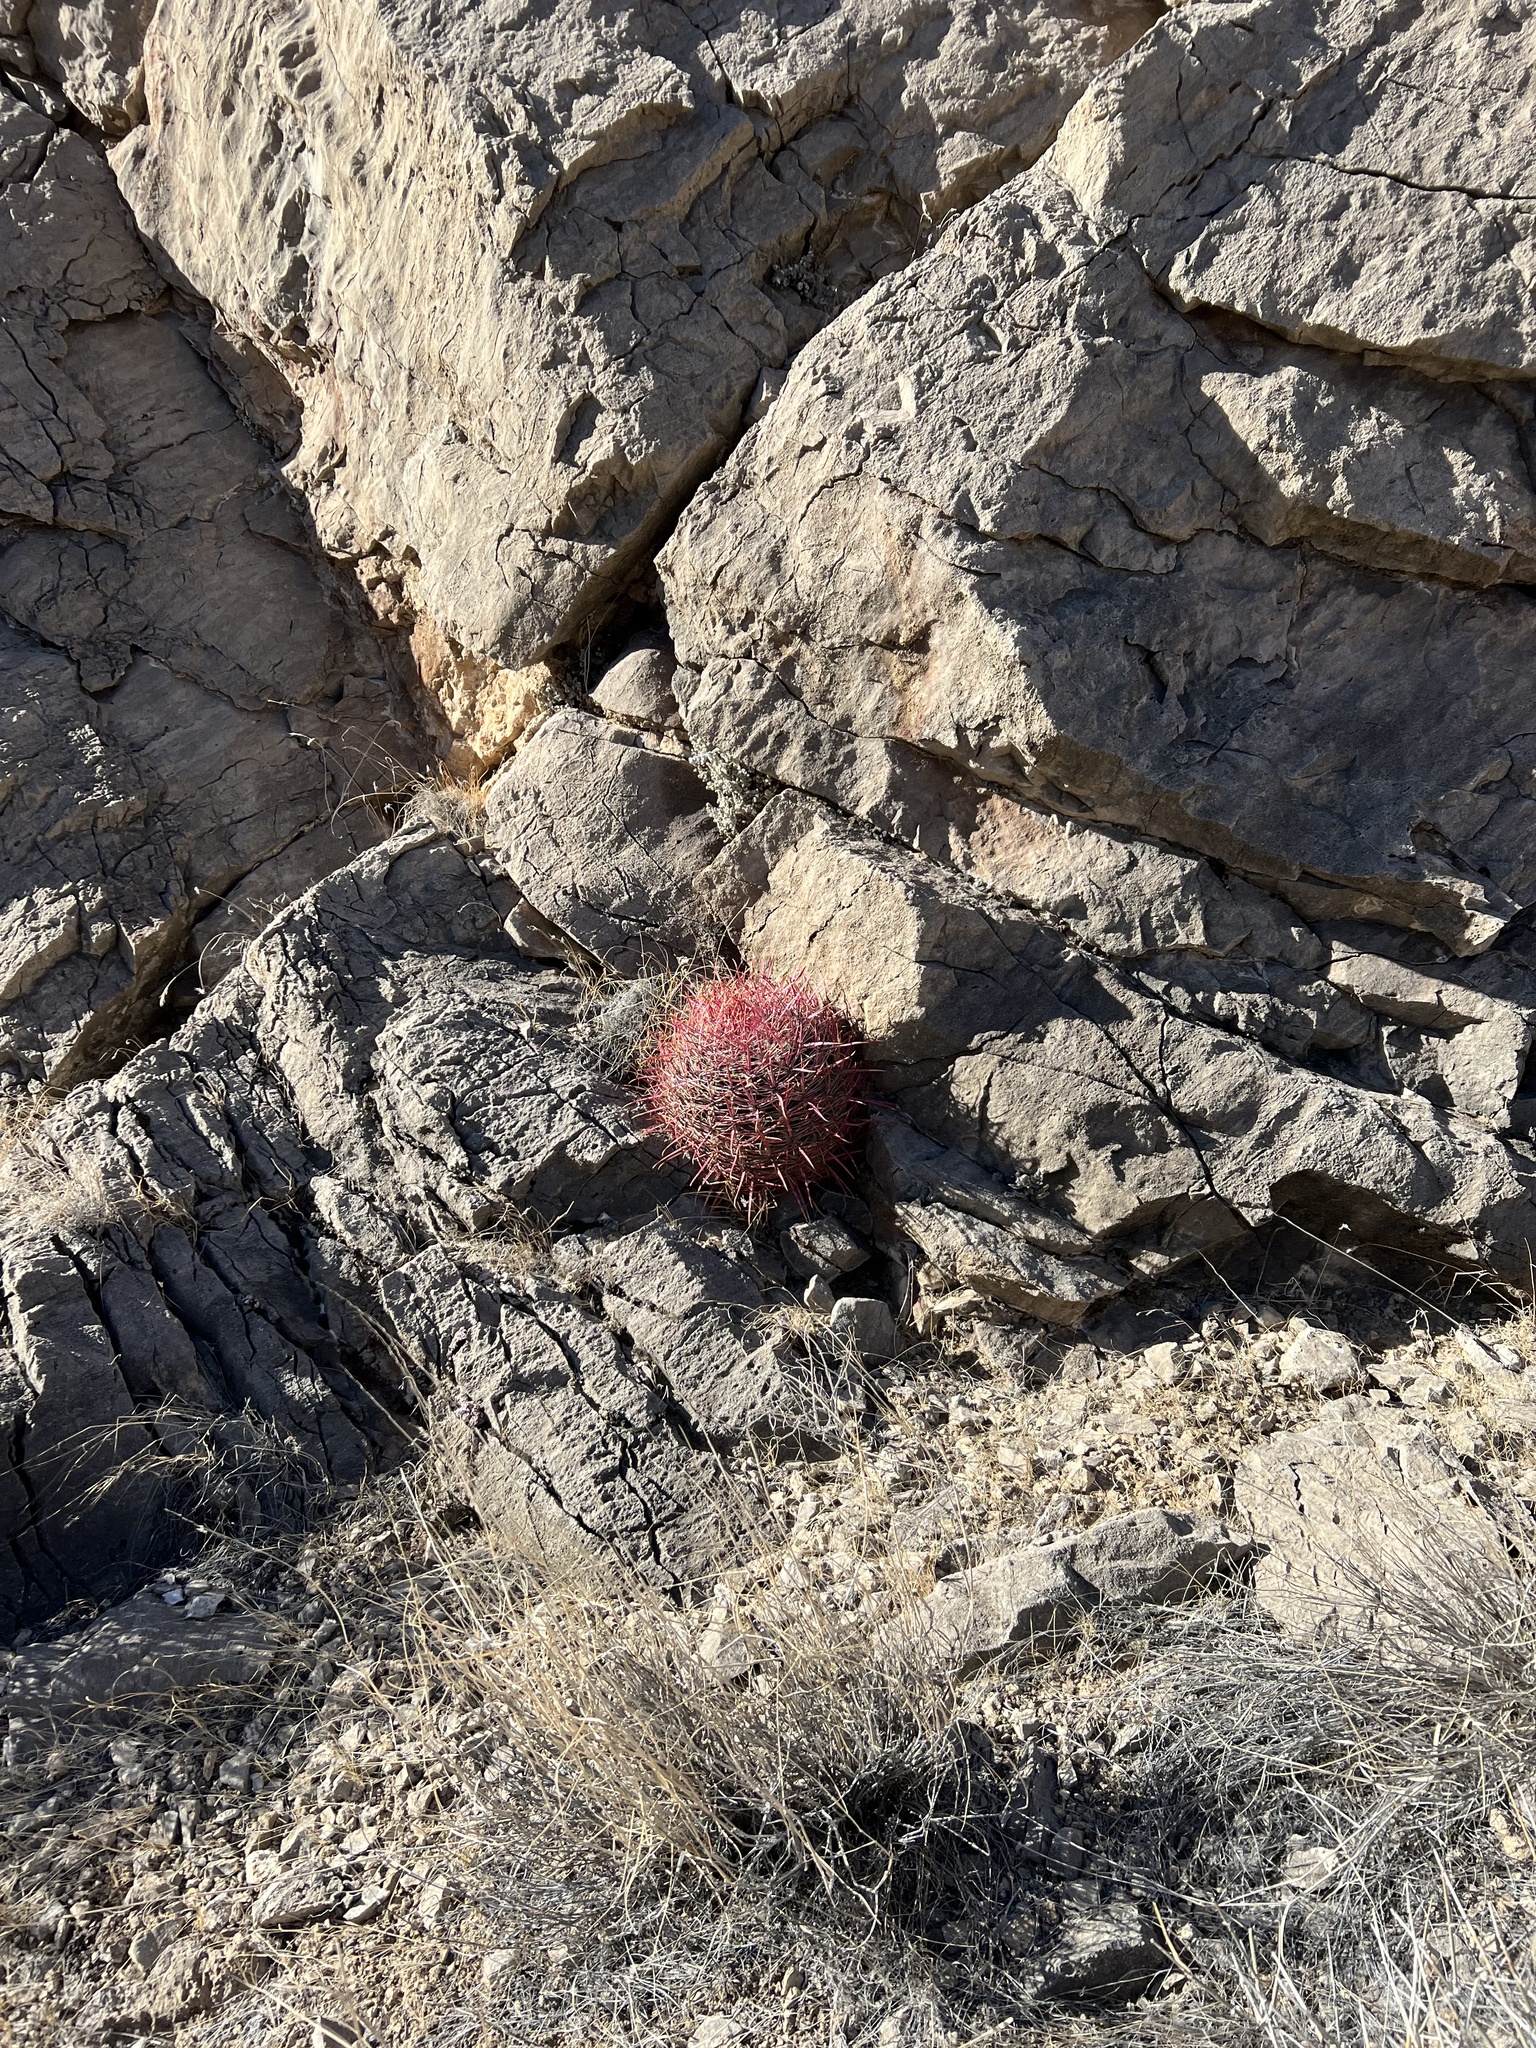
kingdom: Plantae
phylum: Tracheophyta
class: Magnoliopsida
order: Caryophyllales
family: Cactaceae
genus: Ferocactus
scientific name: Ferocactus cylindraceus
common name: California barrel cactus
